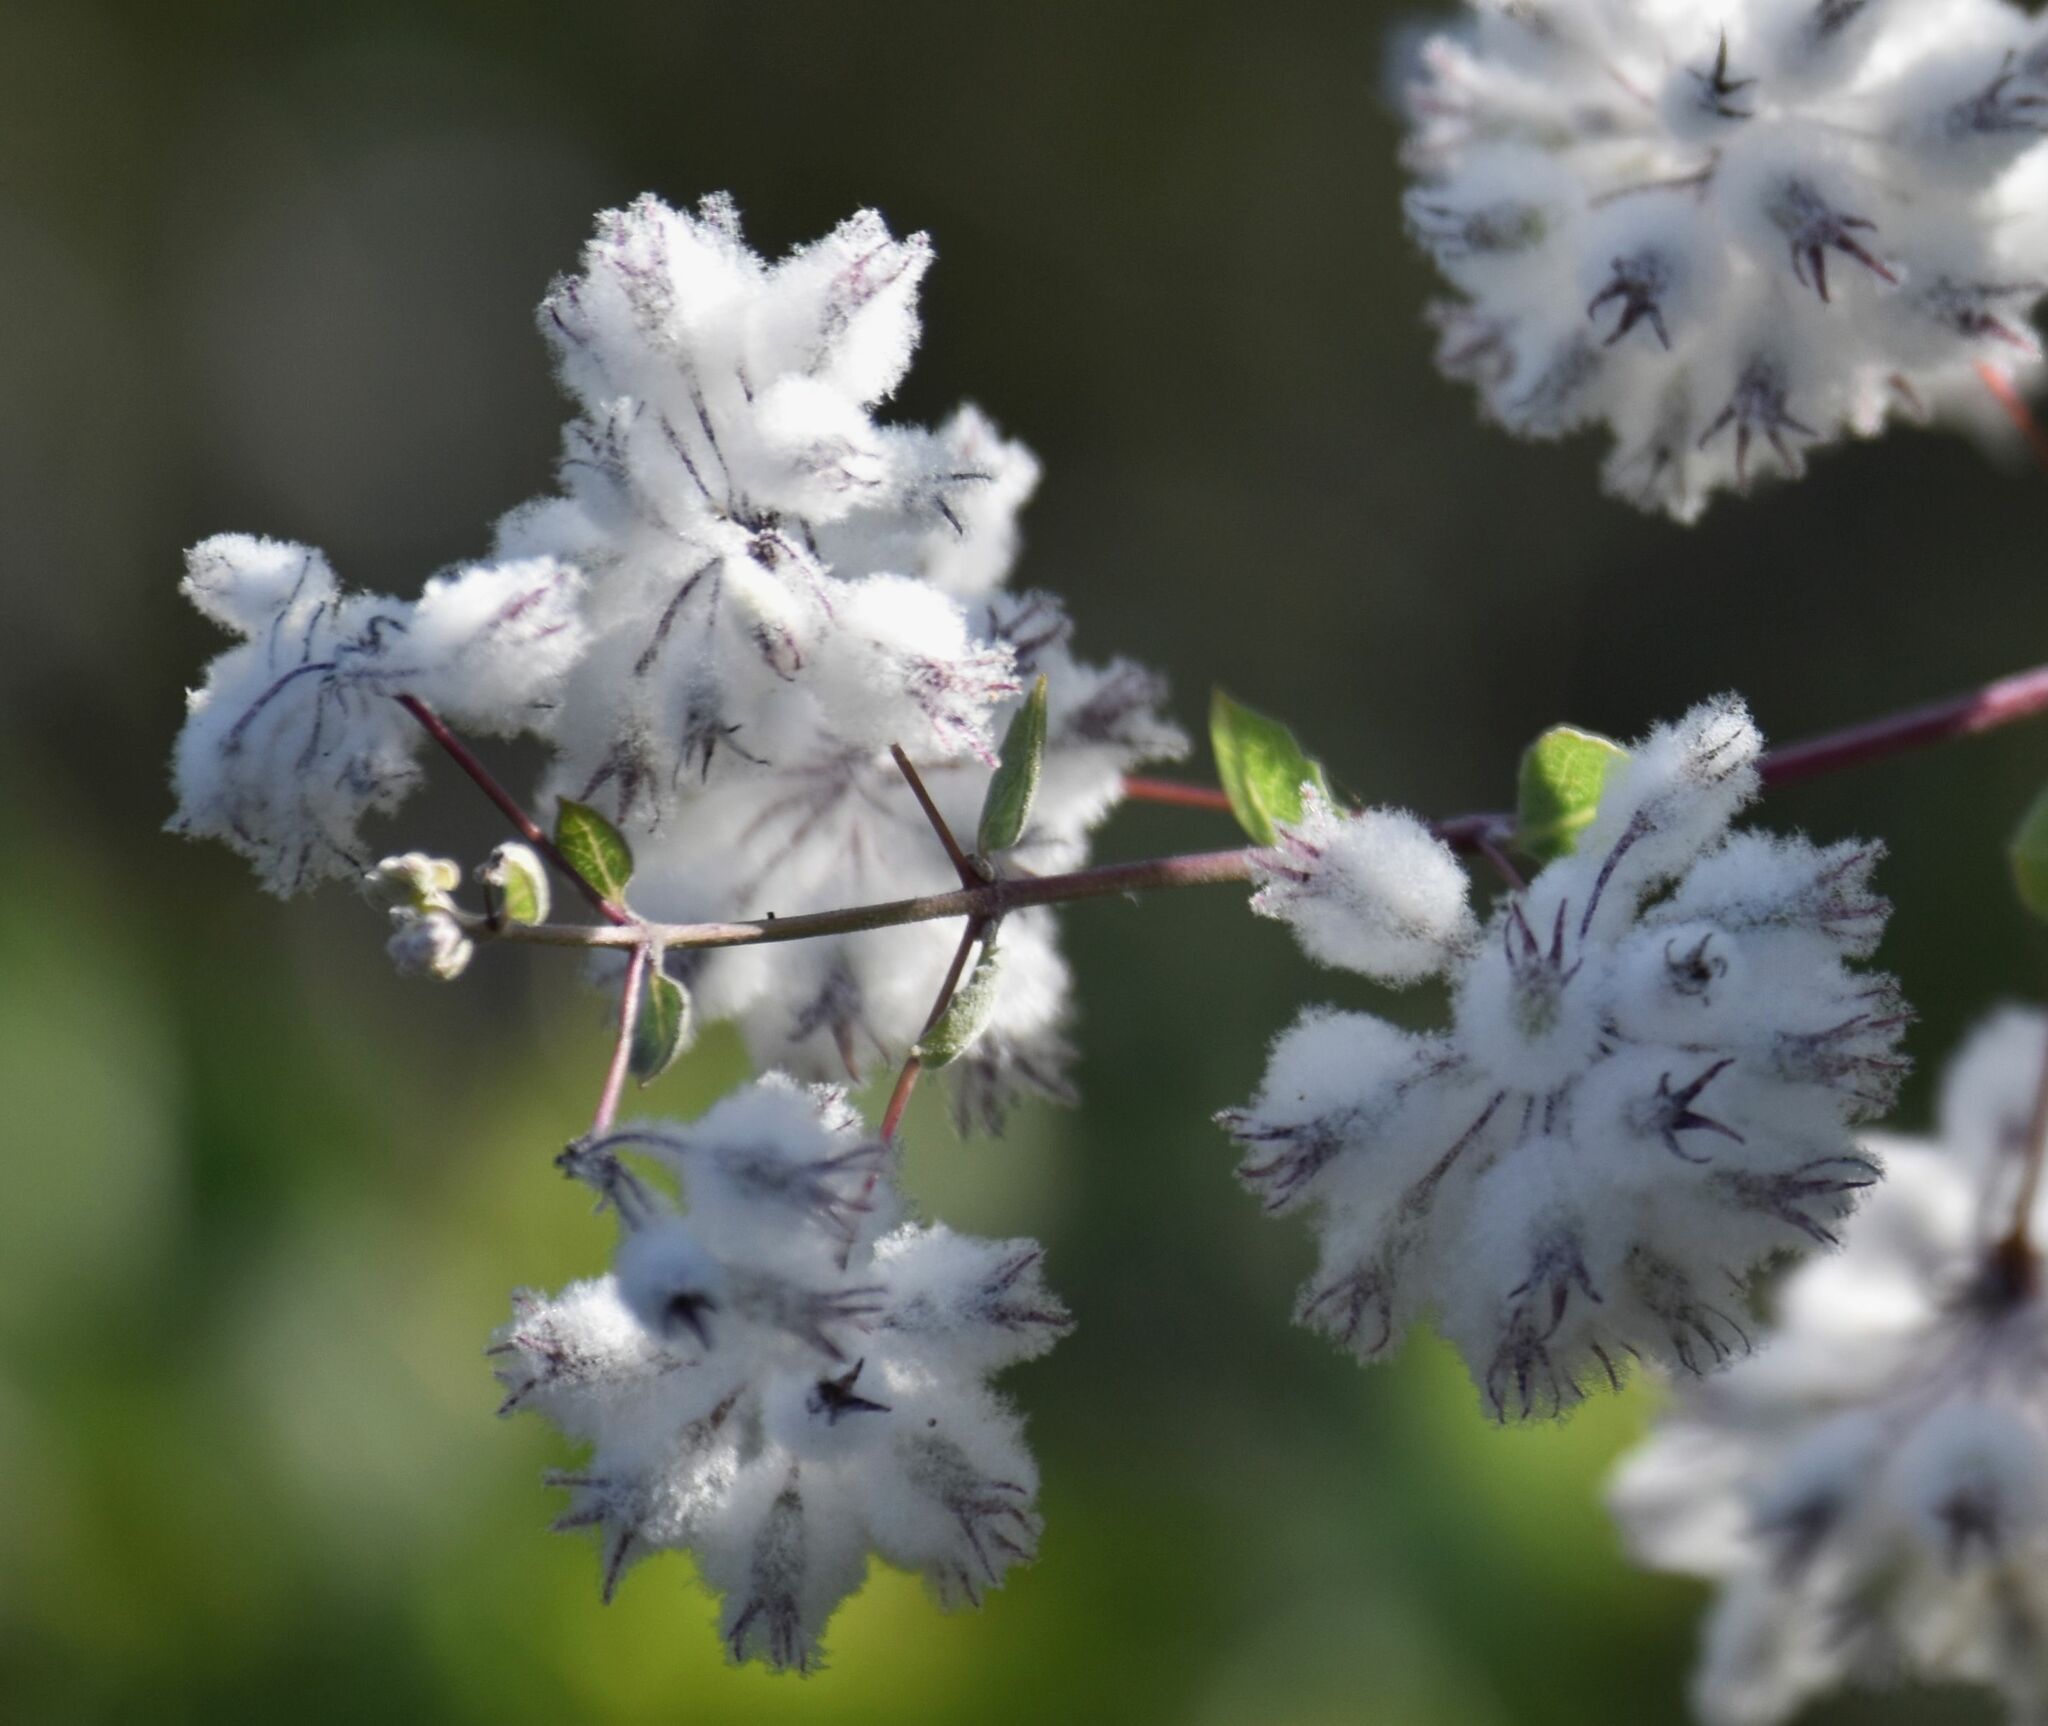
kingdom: Plantae
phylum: Tracheophyta
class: Magnoliopsida
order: Lamiales
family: Lamiaceae
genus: Condea
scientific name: Condea laniflora
